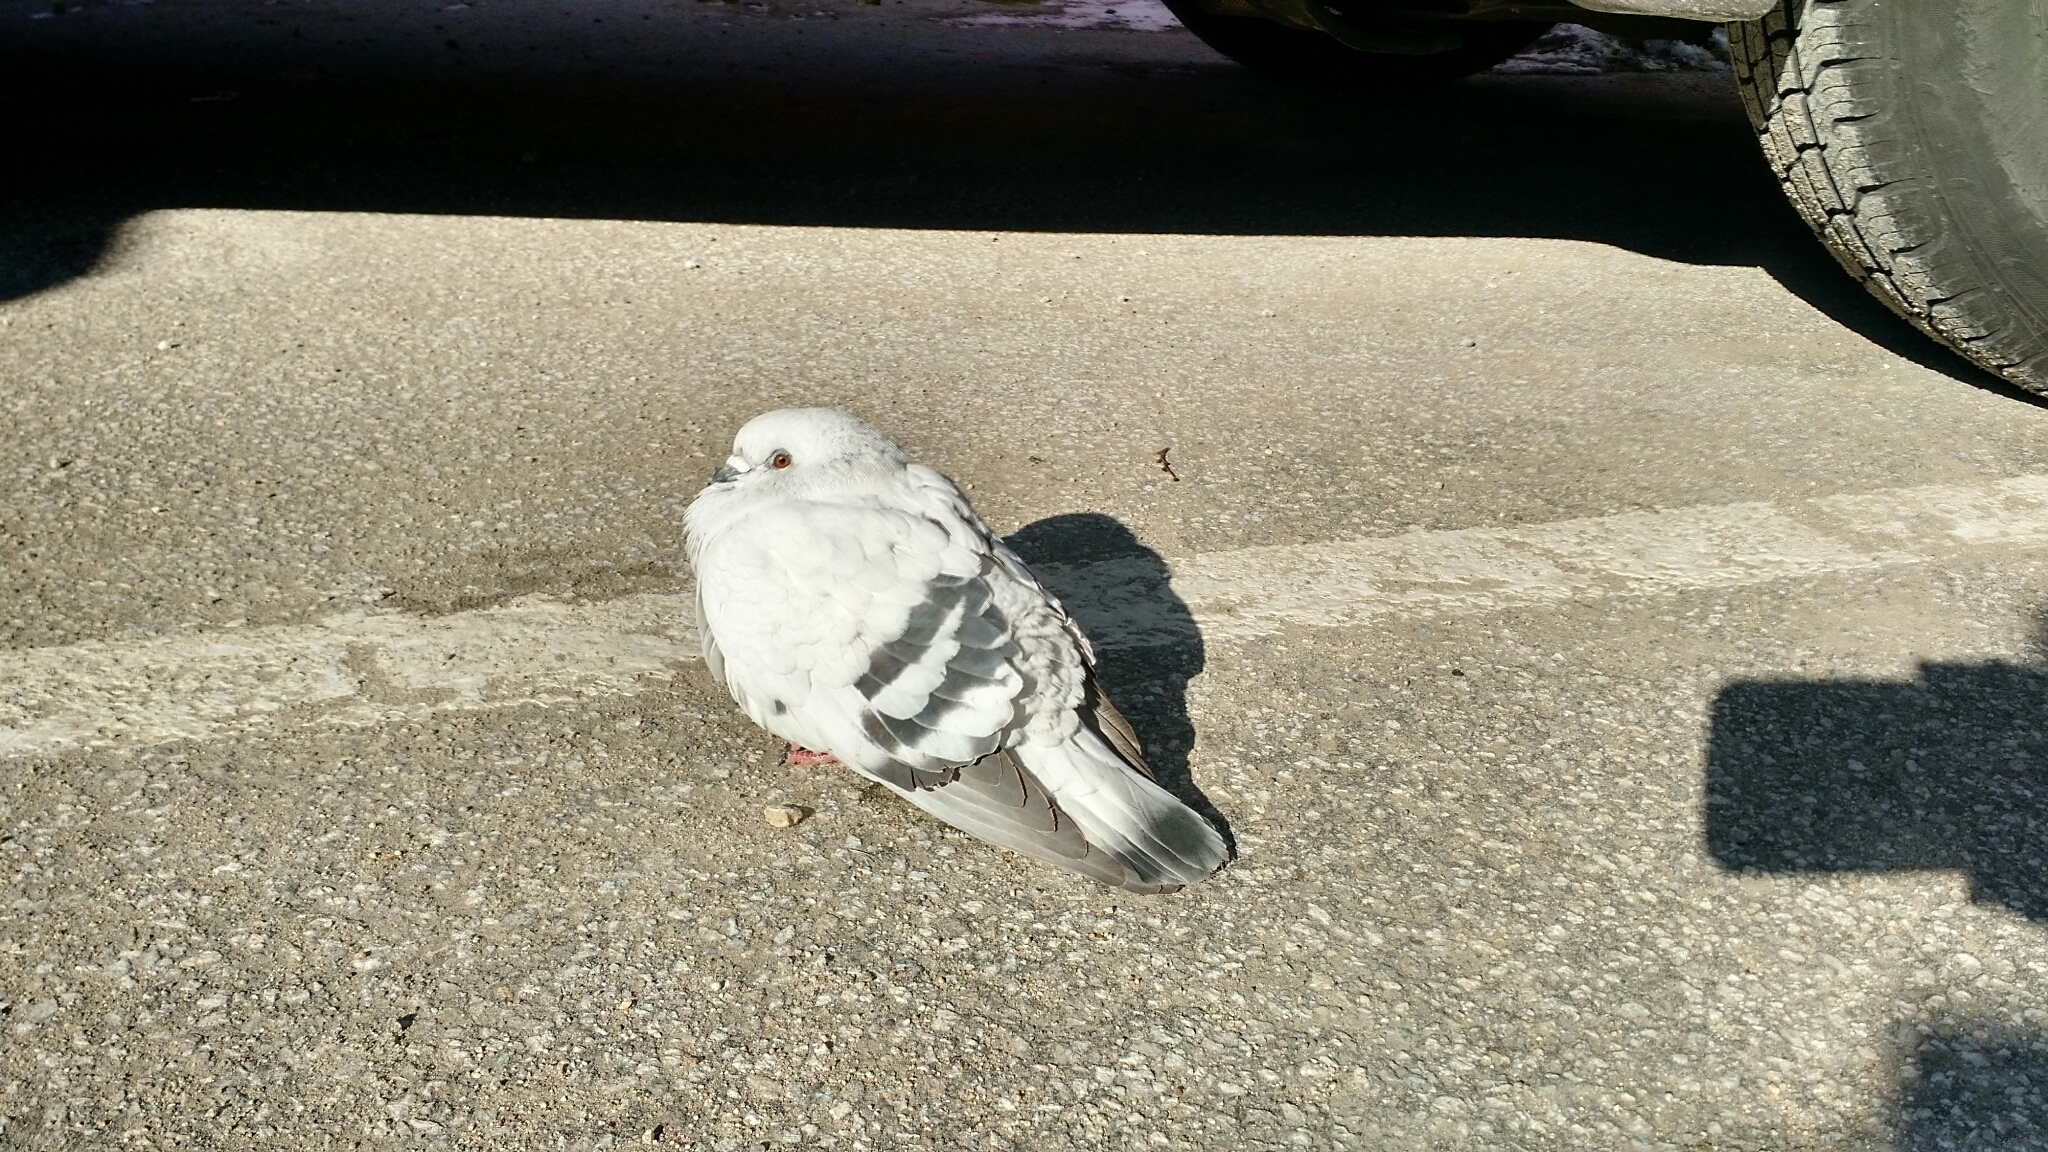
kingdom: Animalia
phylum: Chordata
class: Aves
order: Columbiformes
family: Columbidae
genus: Columba
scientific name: Columba livia
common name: Rock pigeon
